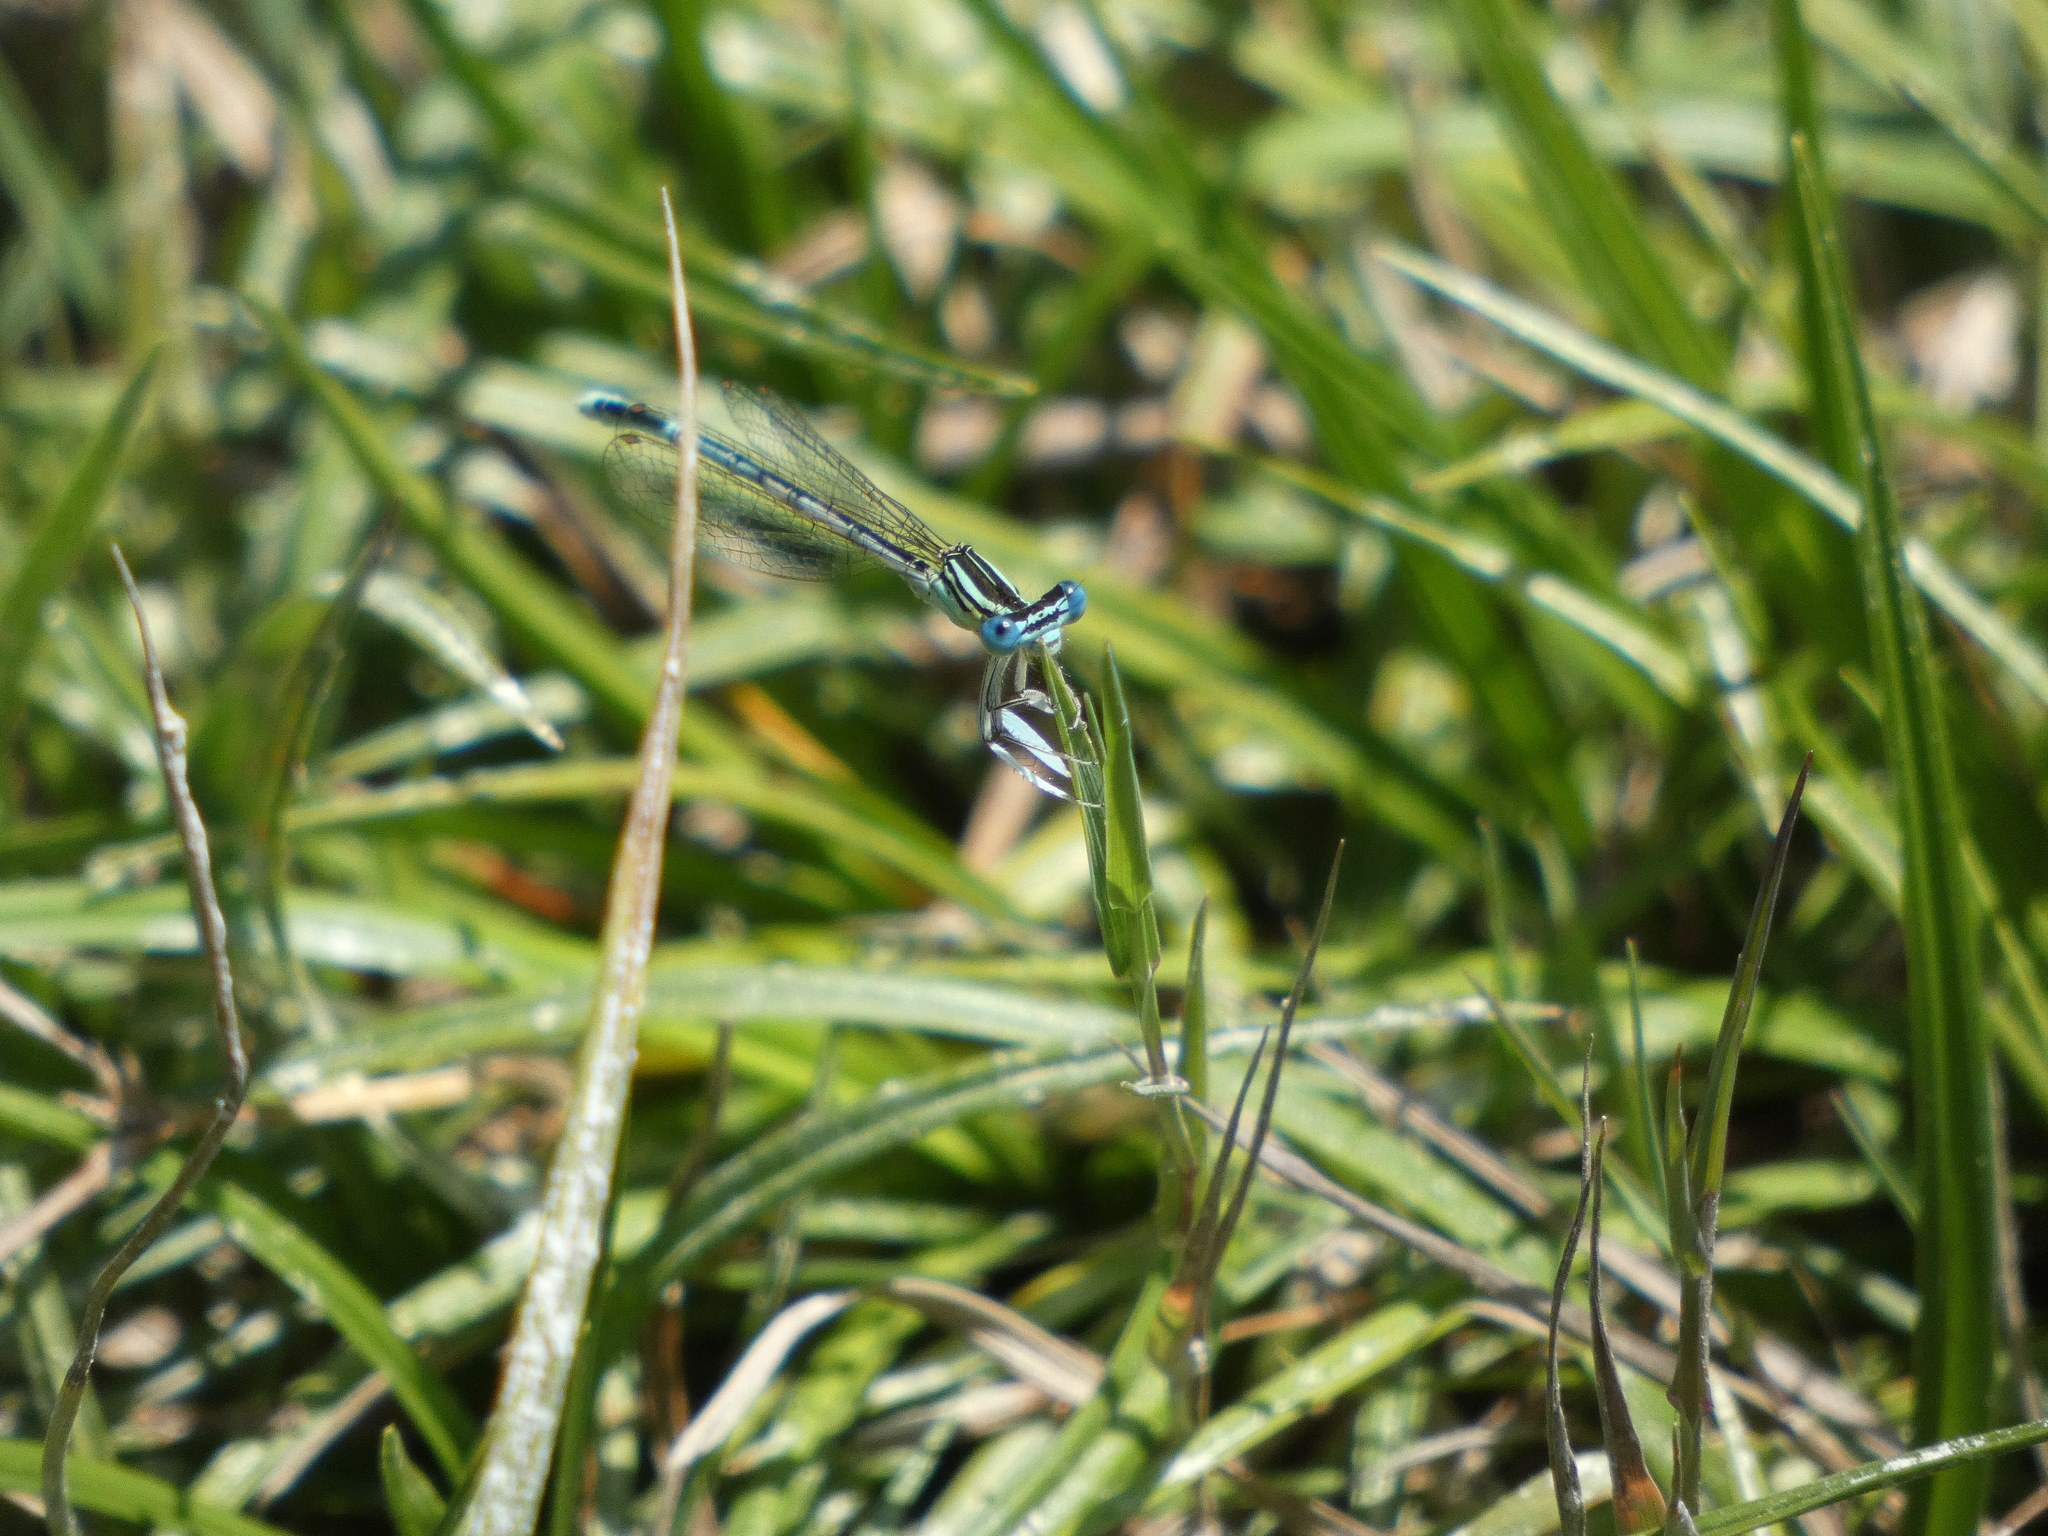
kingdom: Animalia
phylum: Arthropoda
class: Insecta
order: Odonata
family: Platycnemididae
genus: Platycnemis
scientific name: Platycnemis pennipes
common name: White-legged damselfly
